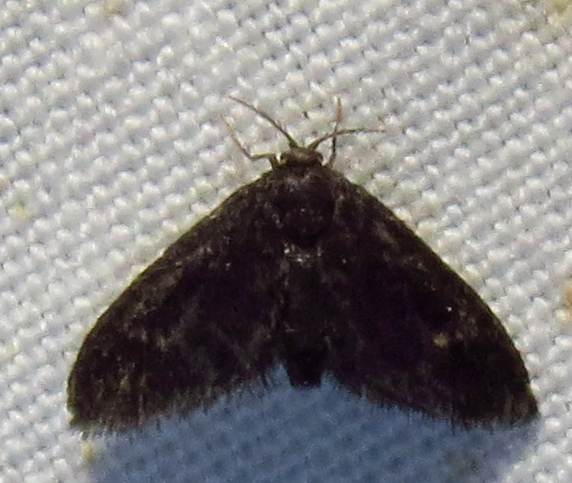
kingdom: Animalia
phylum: Arthropoda
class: Insecta
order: Lepidoptera
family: Epipyropidae
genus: Fulgoraecia
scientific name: Fulgoraecia exigua
